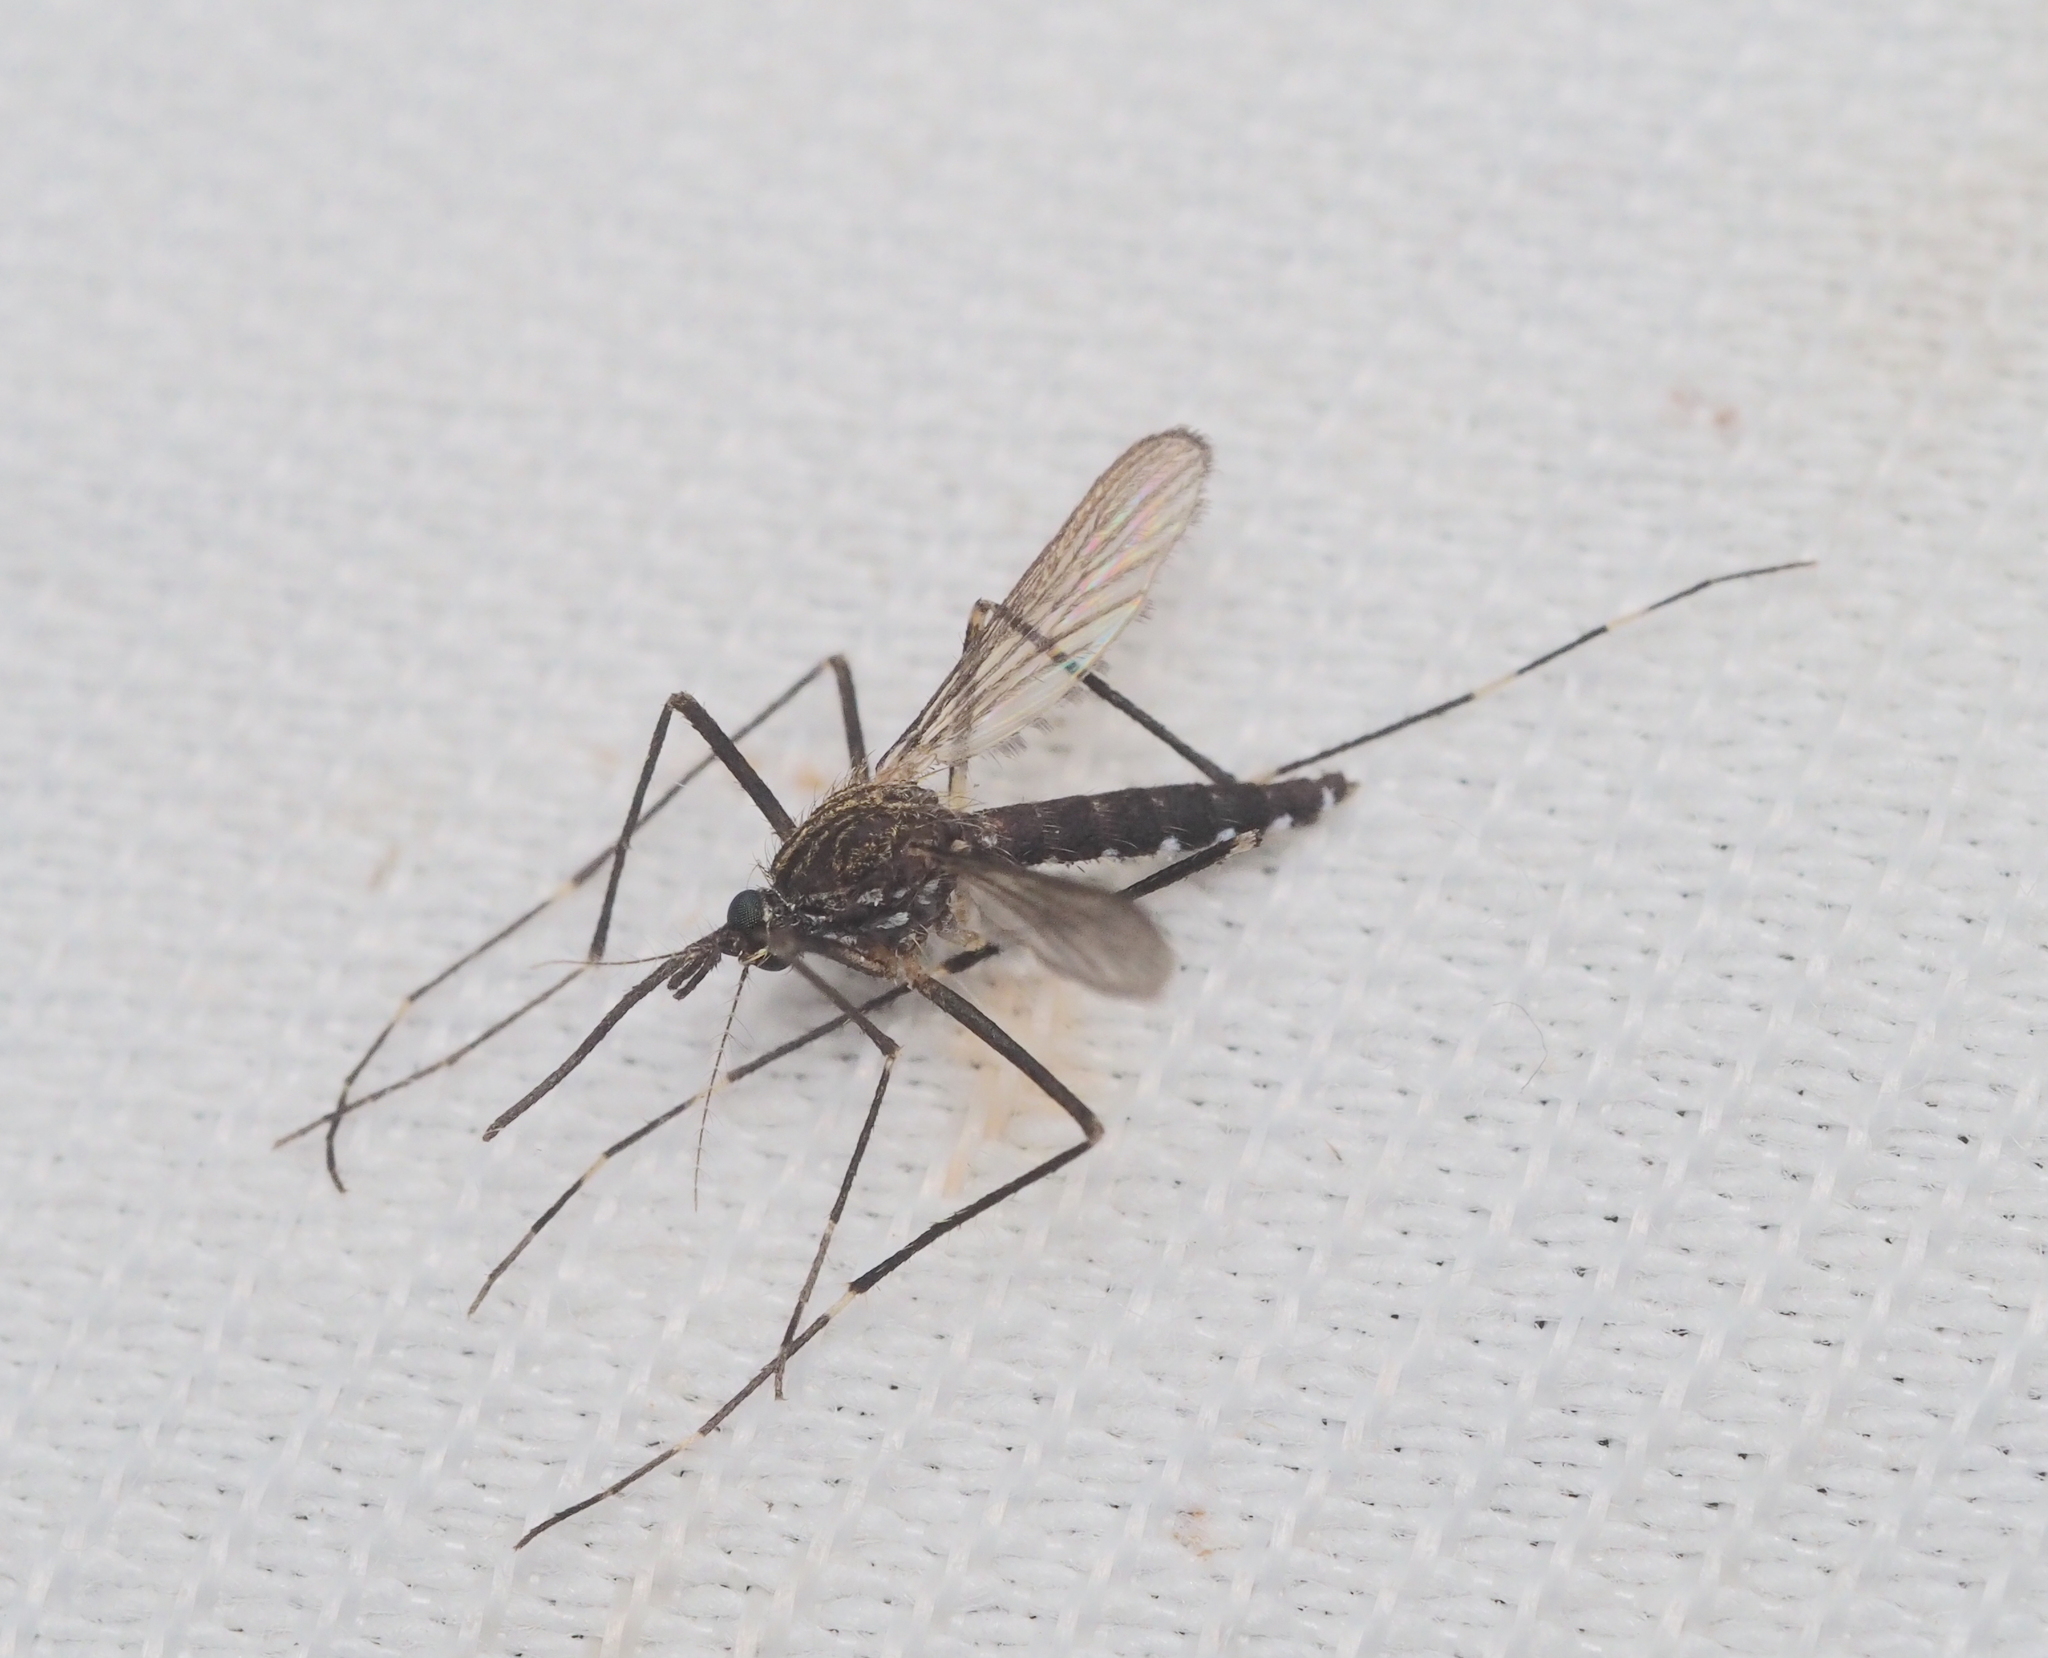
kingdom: Animalia
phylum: Arthropoda
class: Insecta
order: Diptera
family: Culicidae
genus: Aedes
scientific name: Aedes japonicus
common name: Asian bush mosquito
